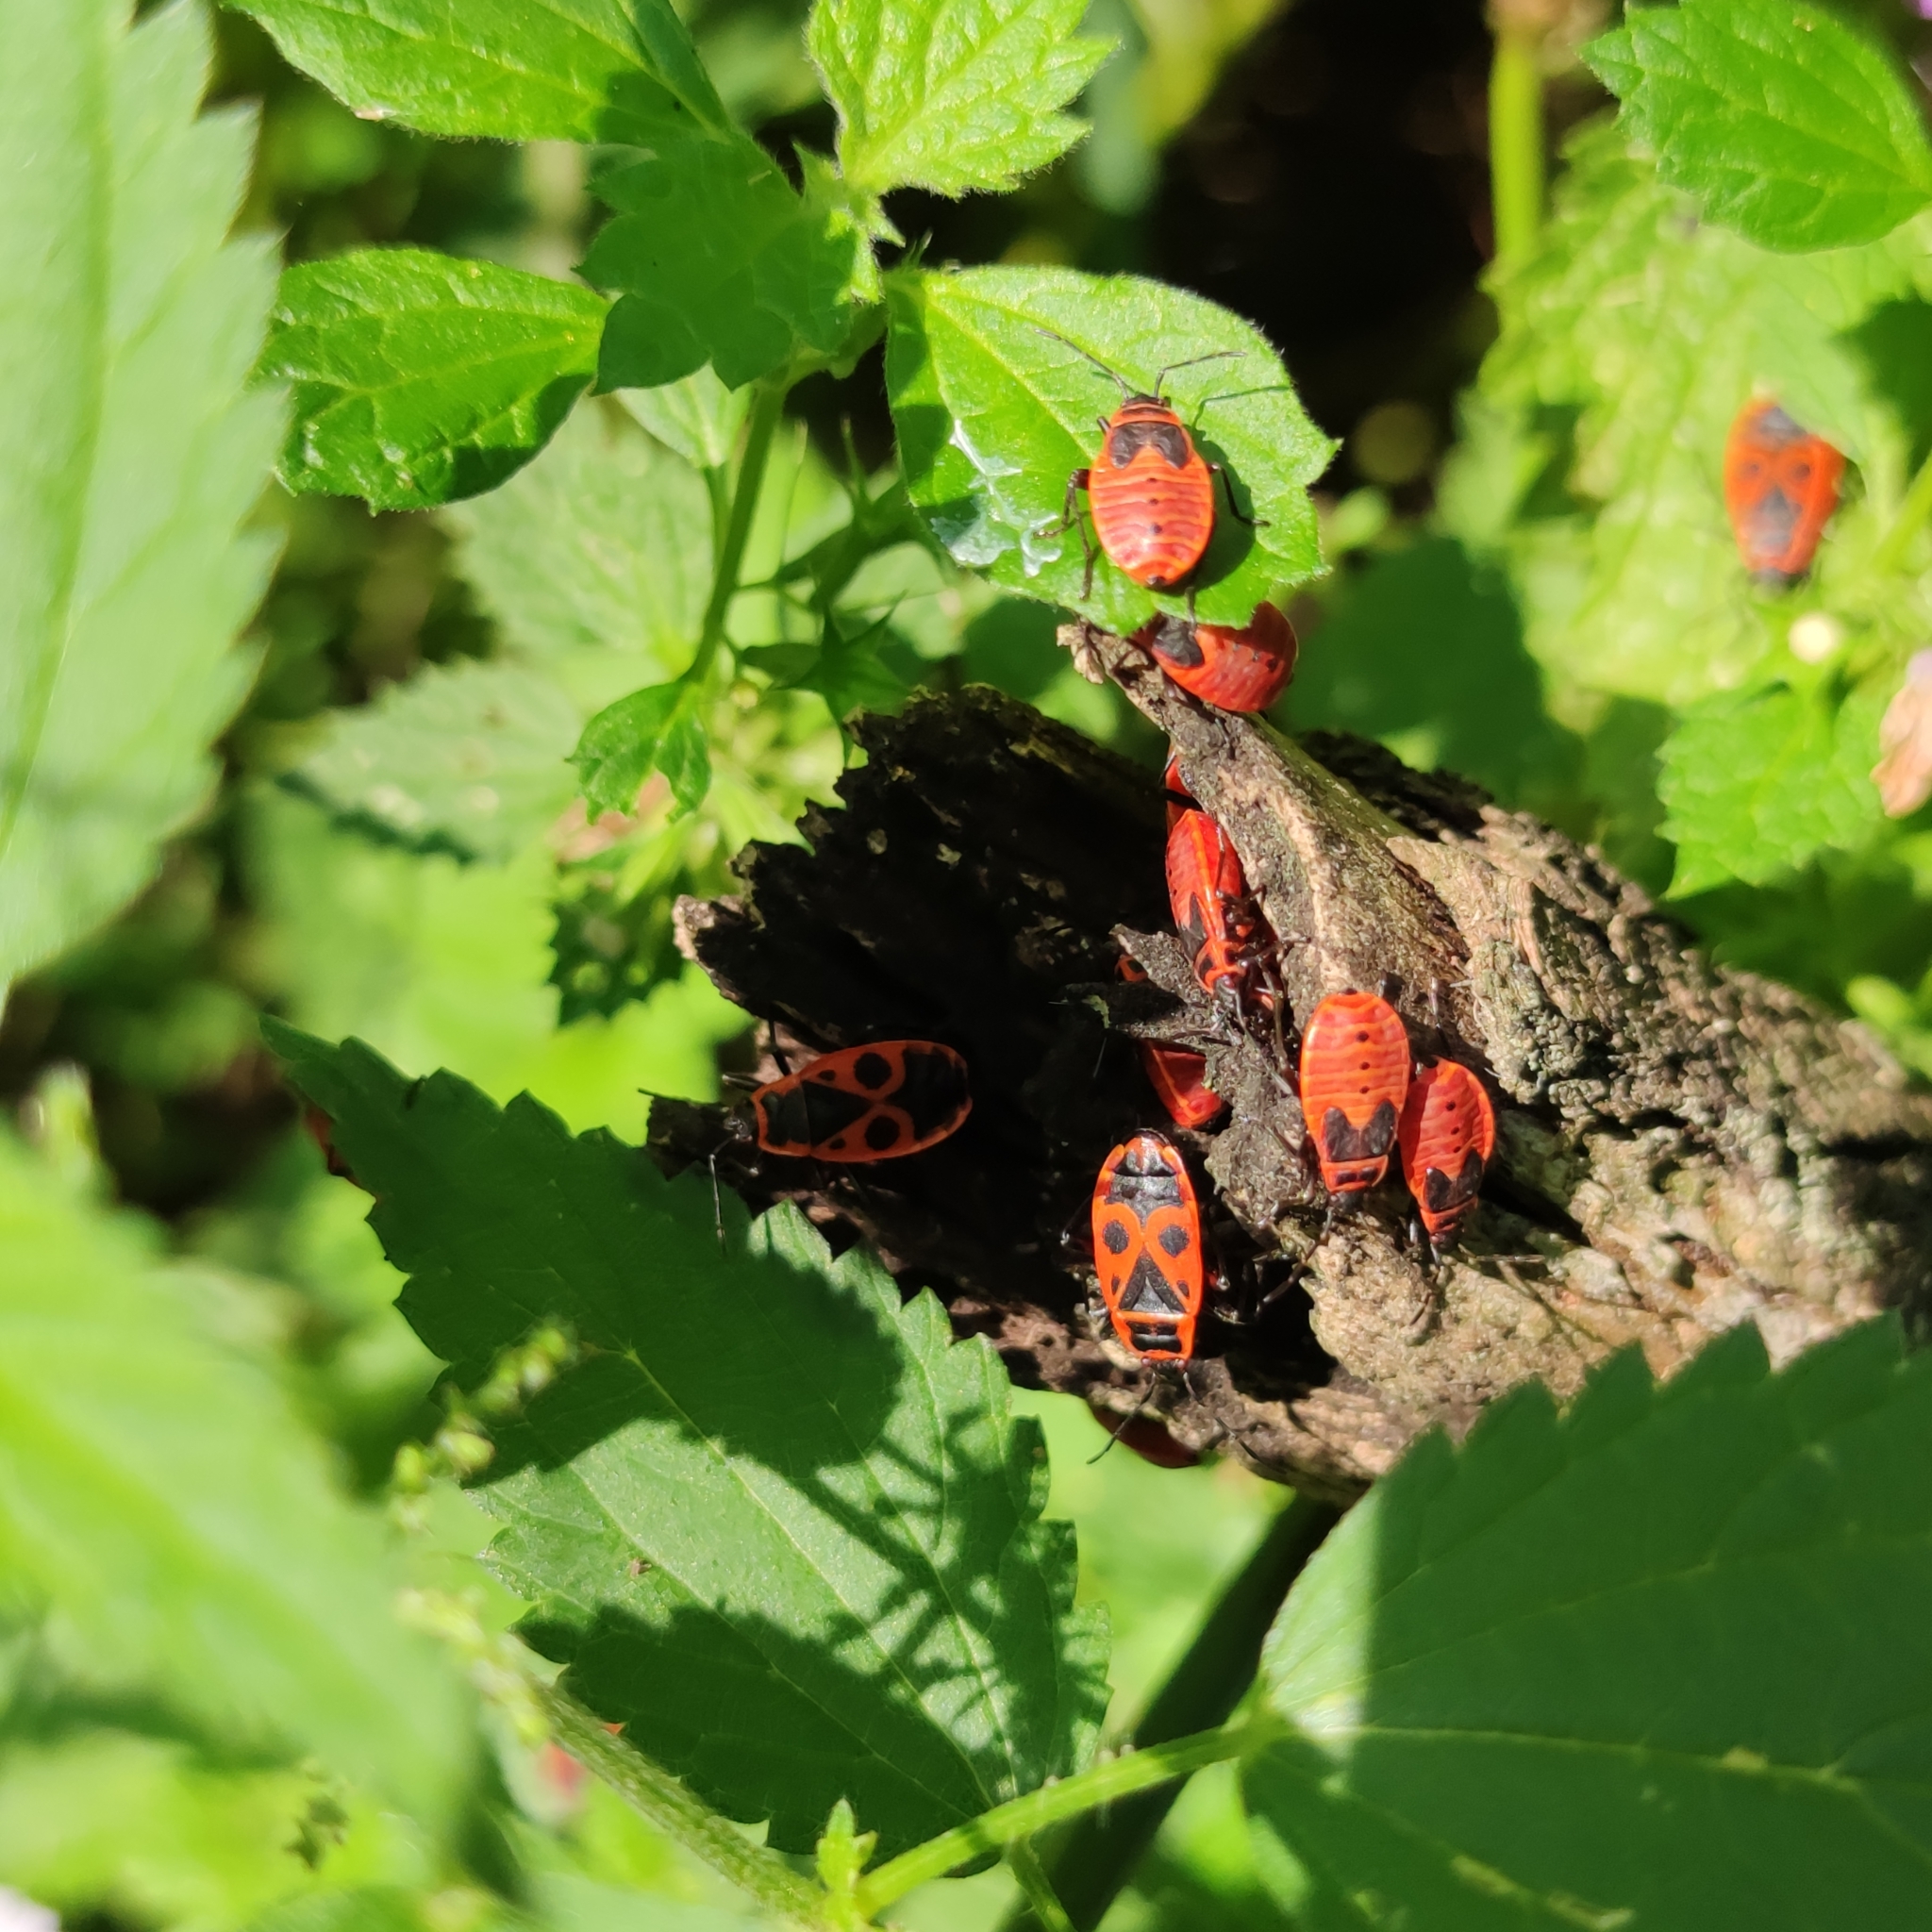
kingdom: Animalia
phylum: Arthropoda
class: Insecta
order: Hemiptera
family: Pyrrhocoridae
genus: Pyrrhocoris
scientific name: Pyrrhocoris apterus
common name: Firebug
